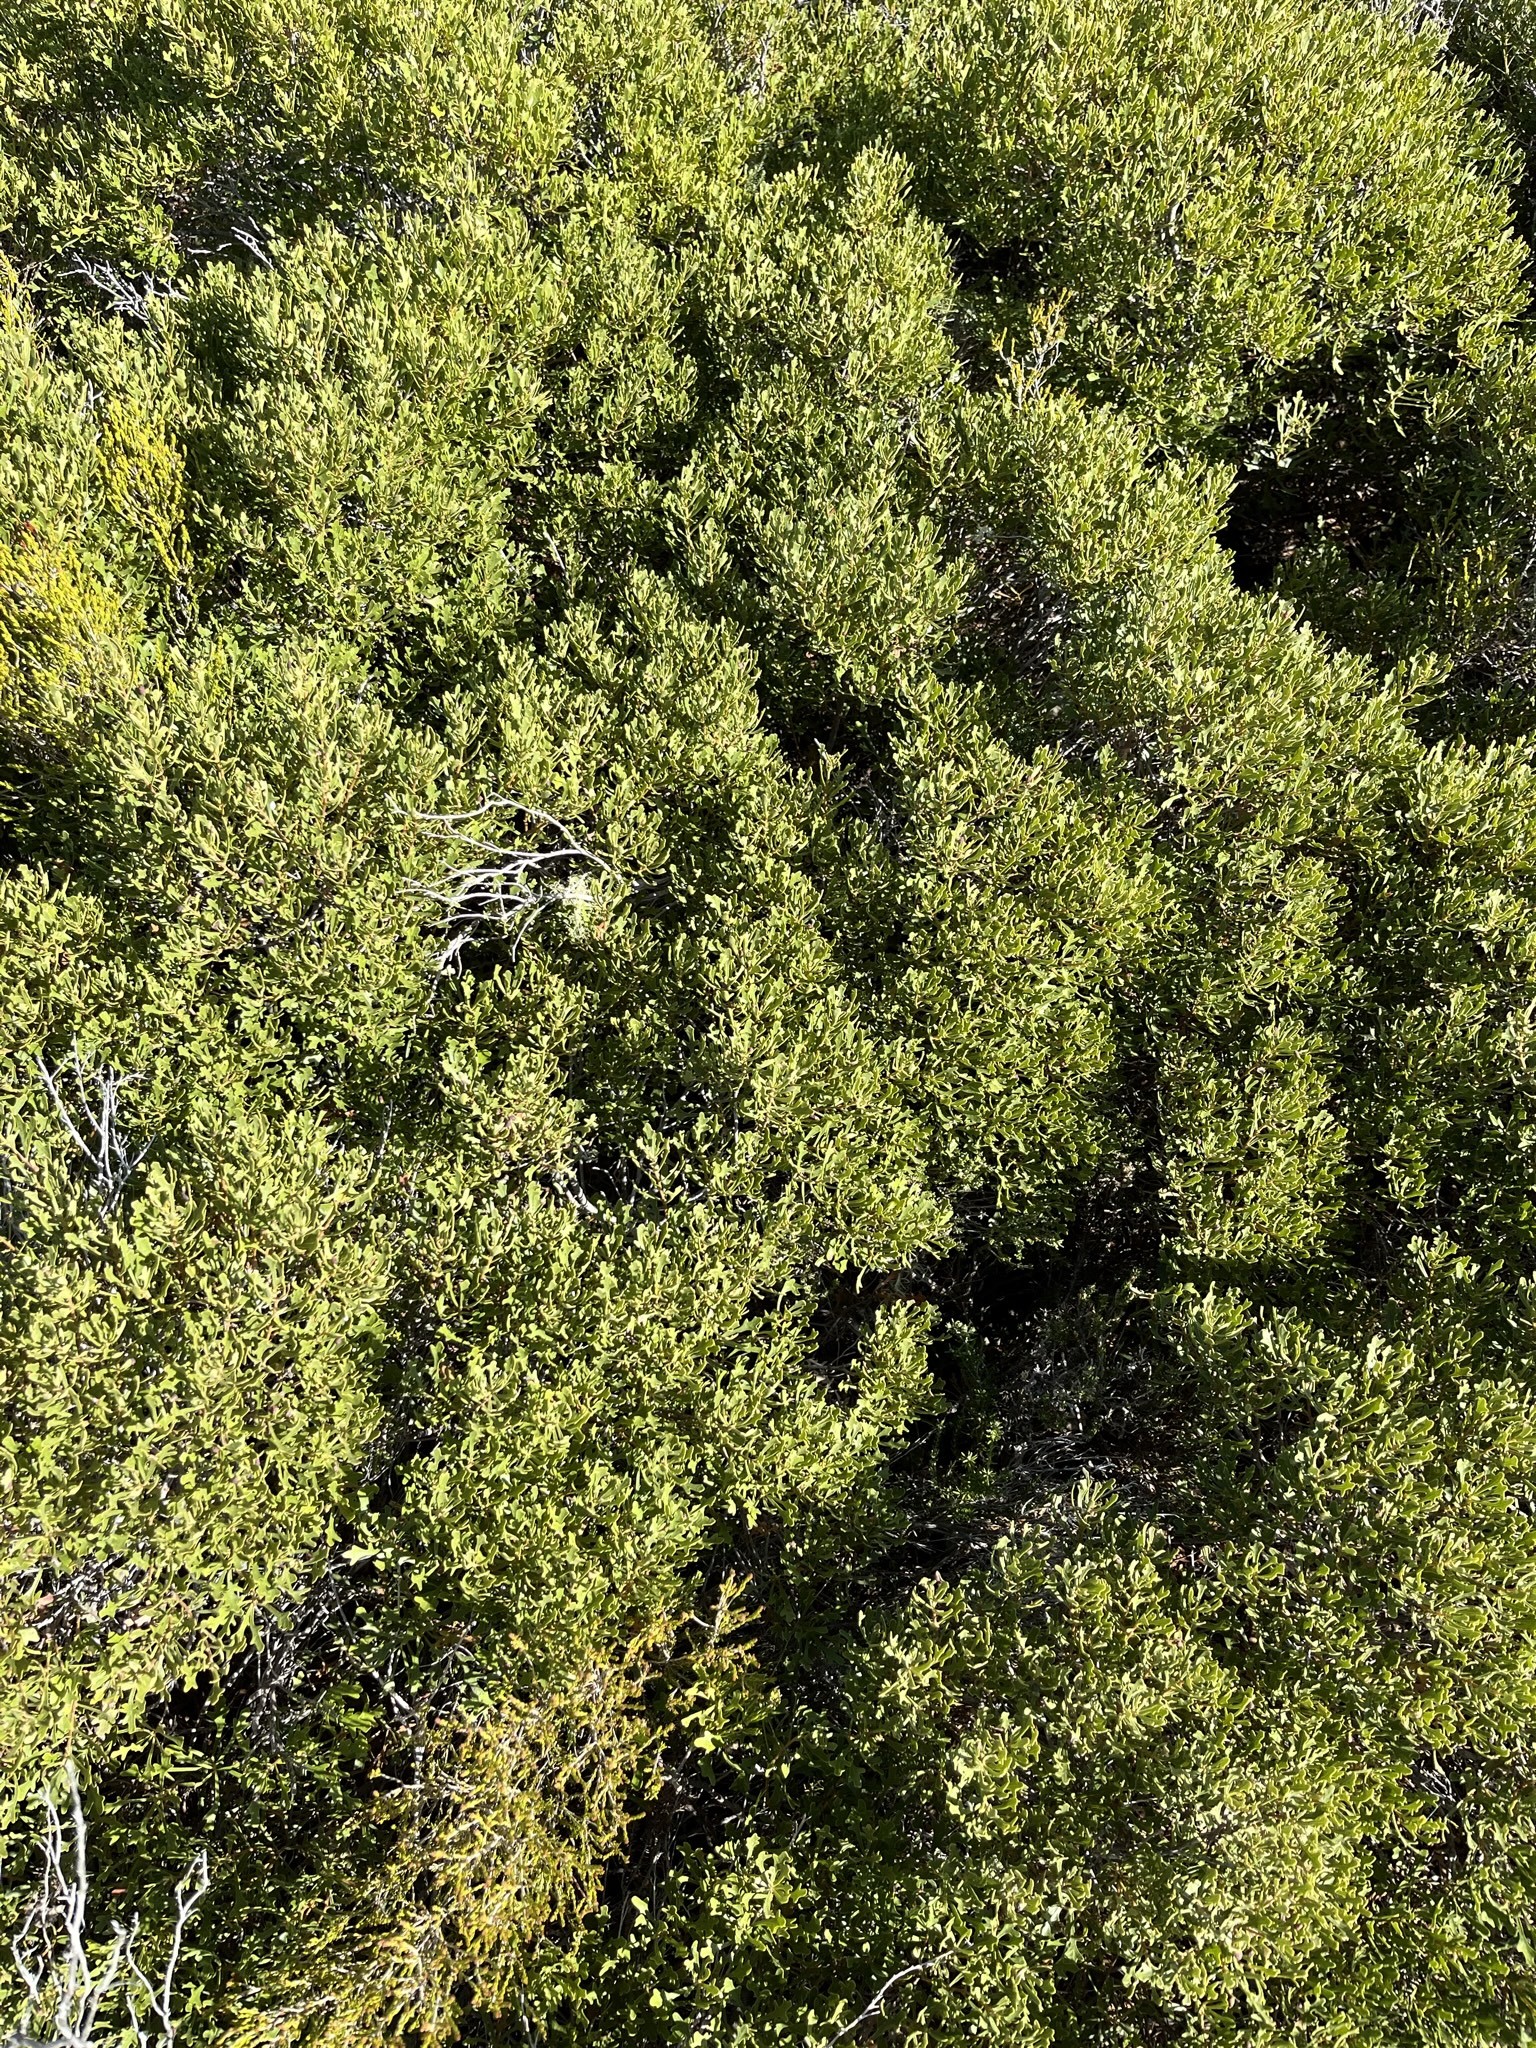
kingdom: Plantae
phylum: Tracheophyta
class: Magnoliopsida
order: Fagales
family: Myricaceae
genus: Morella
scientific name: Morella quercifolia
